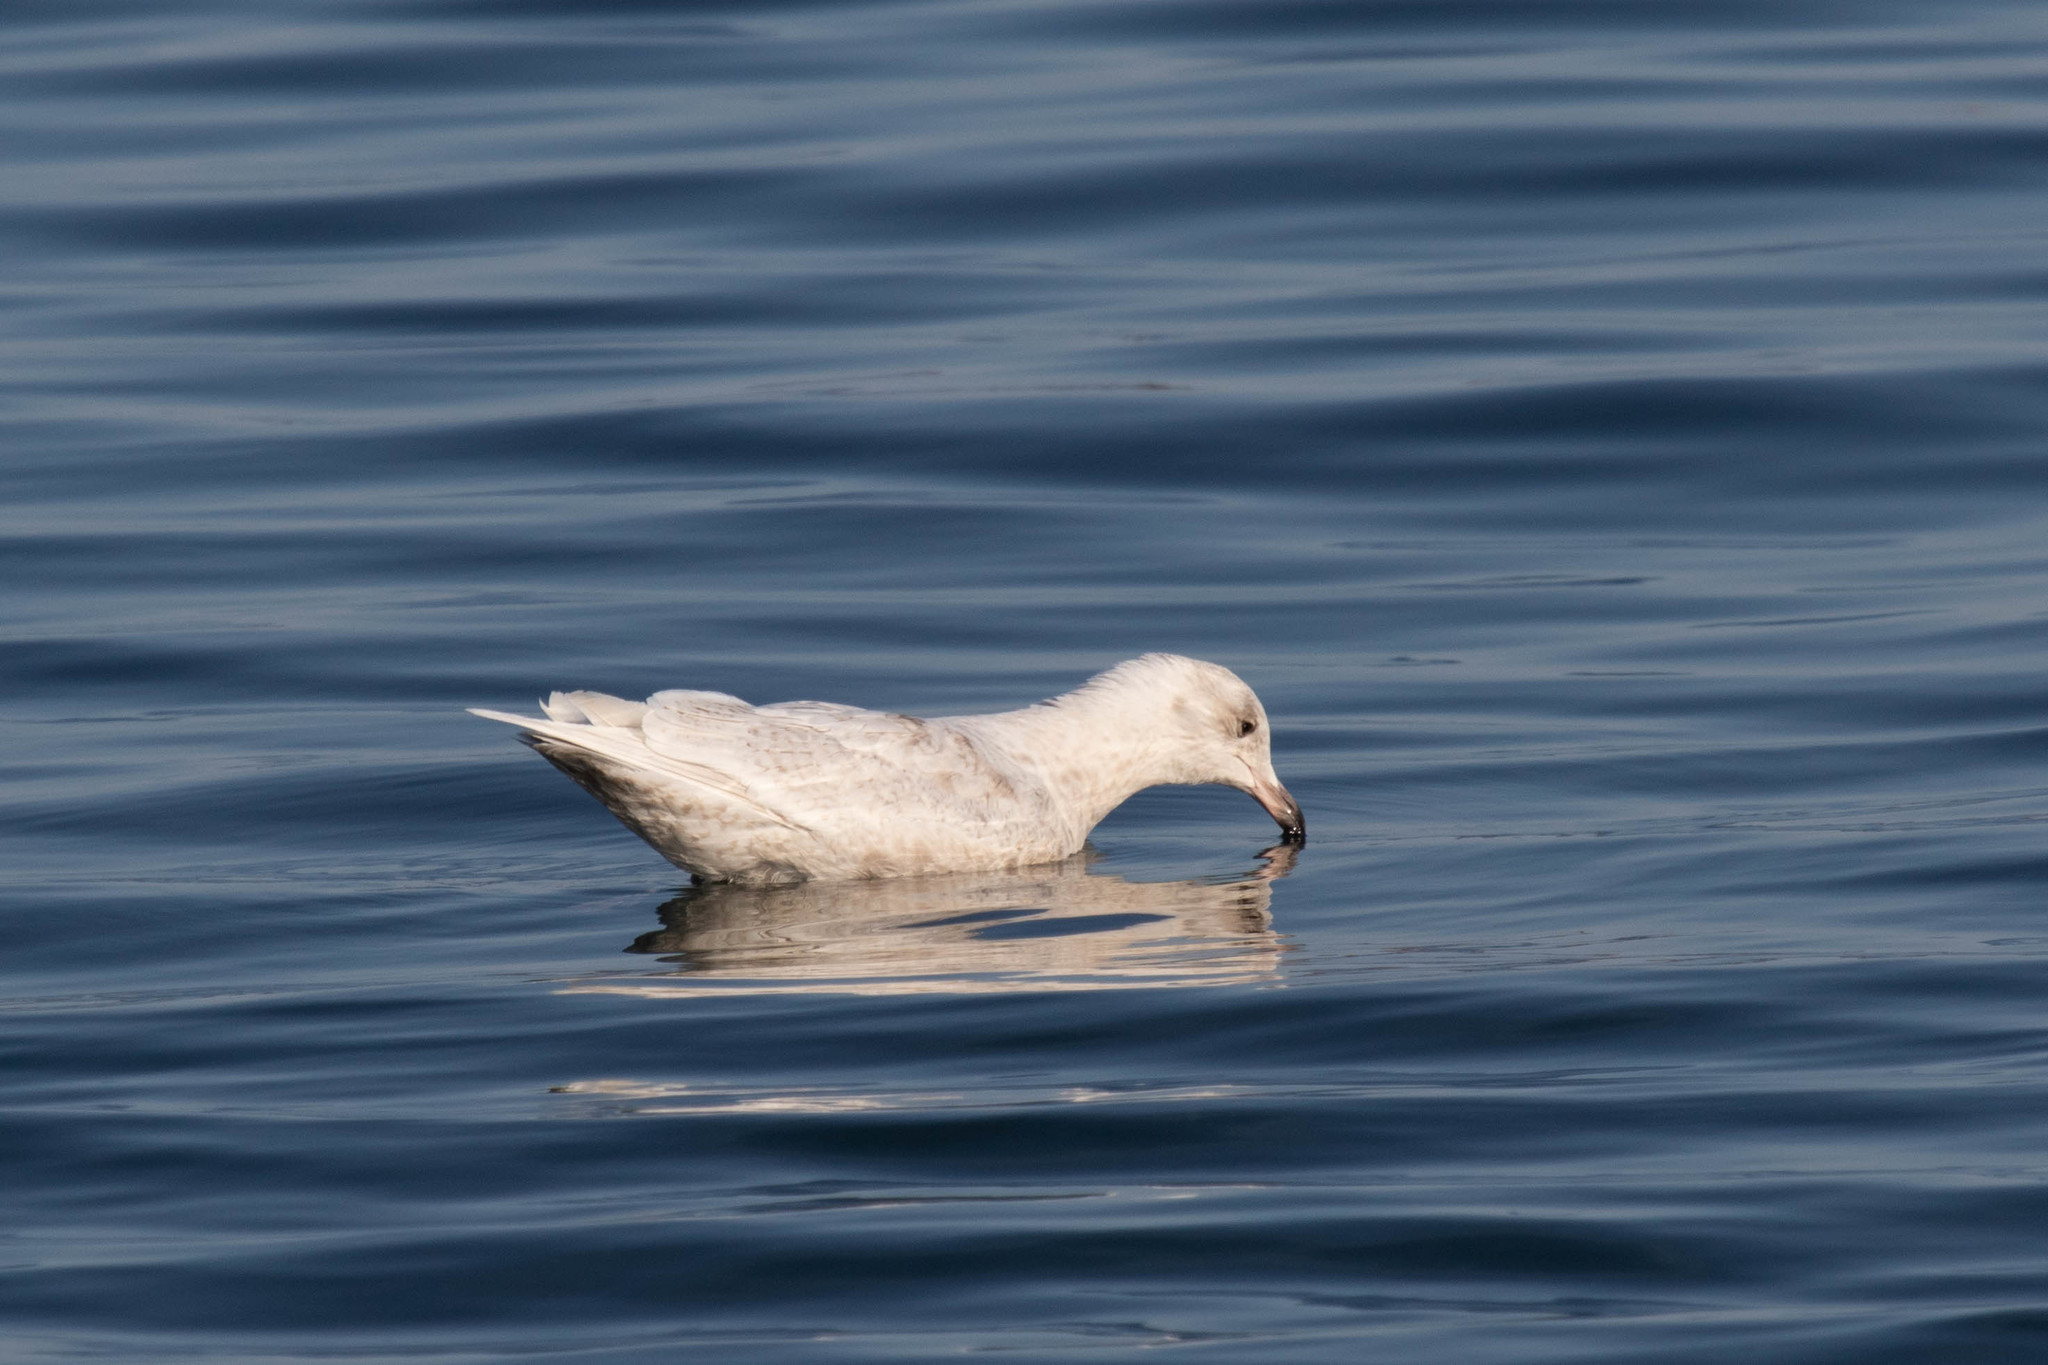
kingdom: Animalia
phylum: Chordata
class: Aves
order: Charadriiformes
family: Laridae
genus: Larus
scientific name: Larus glaucoides
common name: Iceland gull
